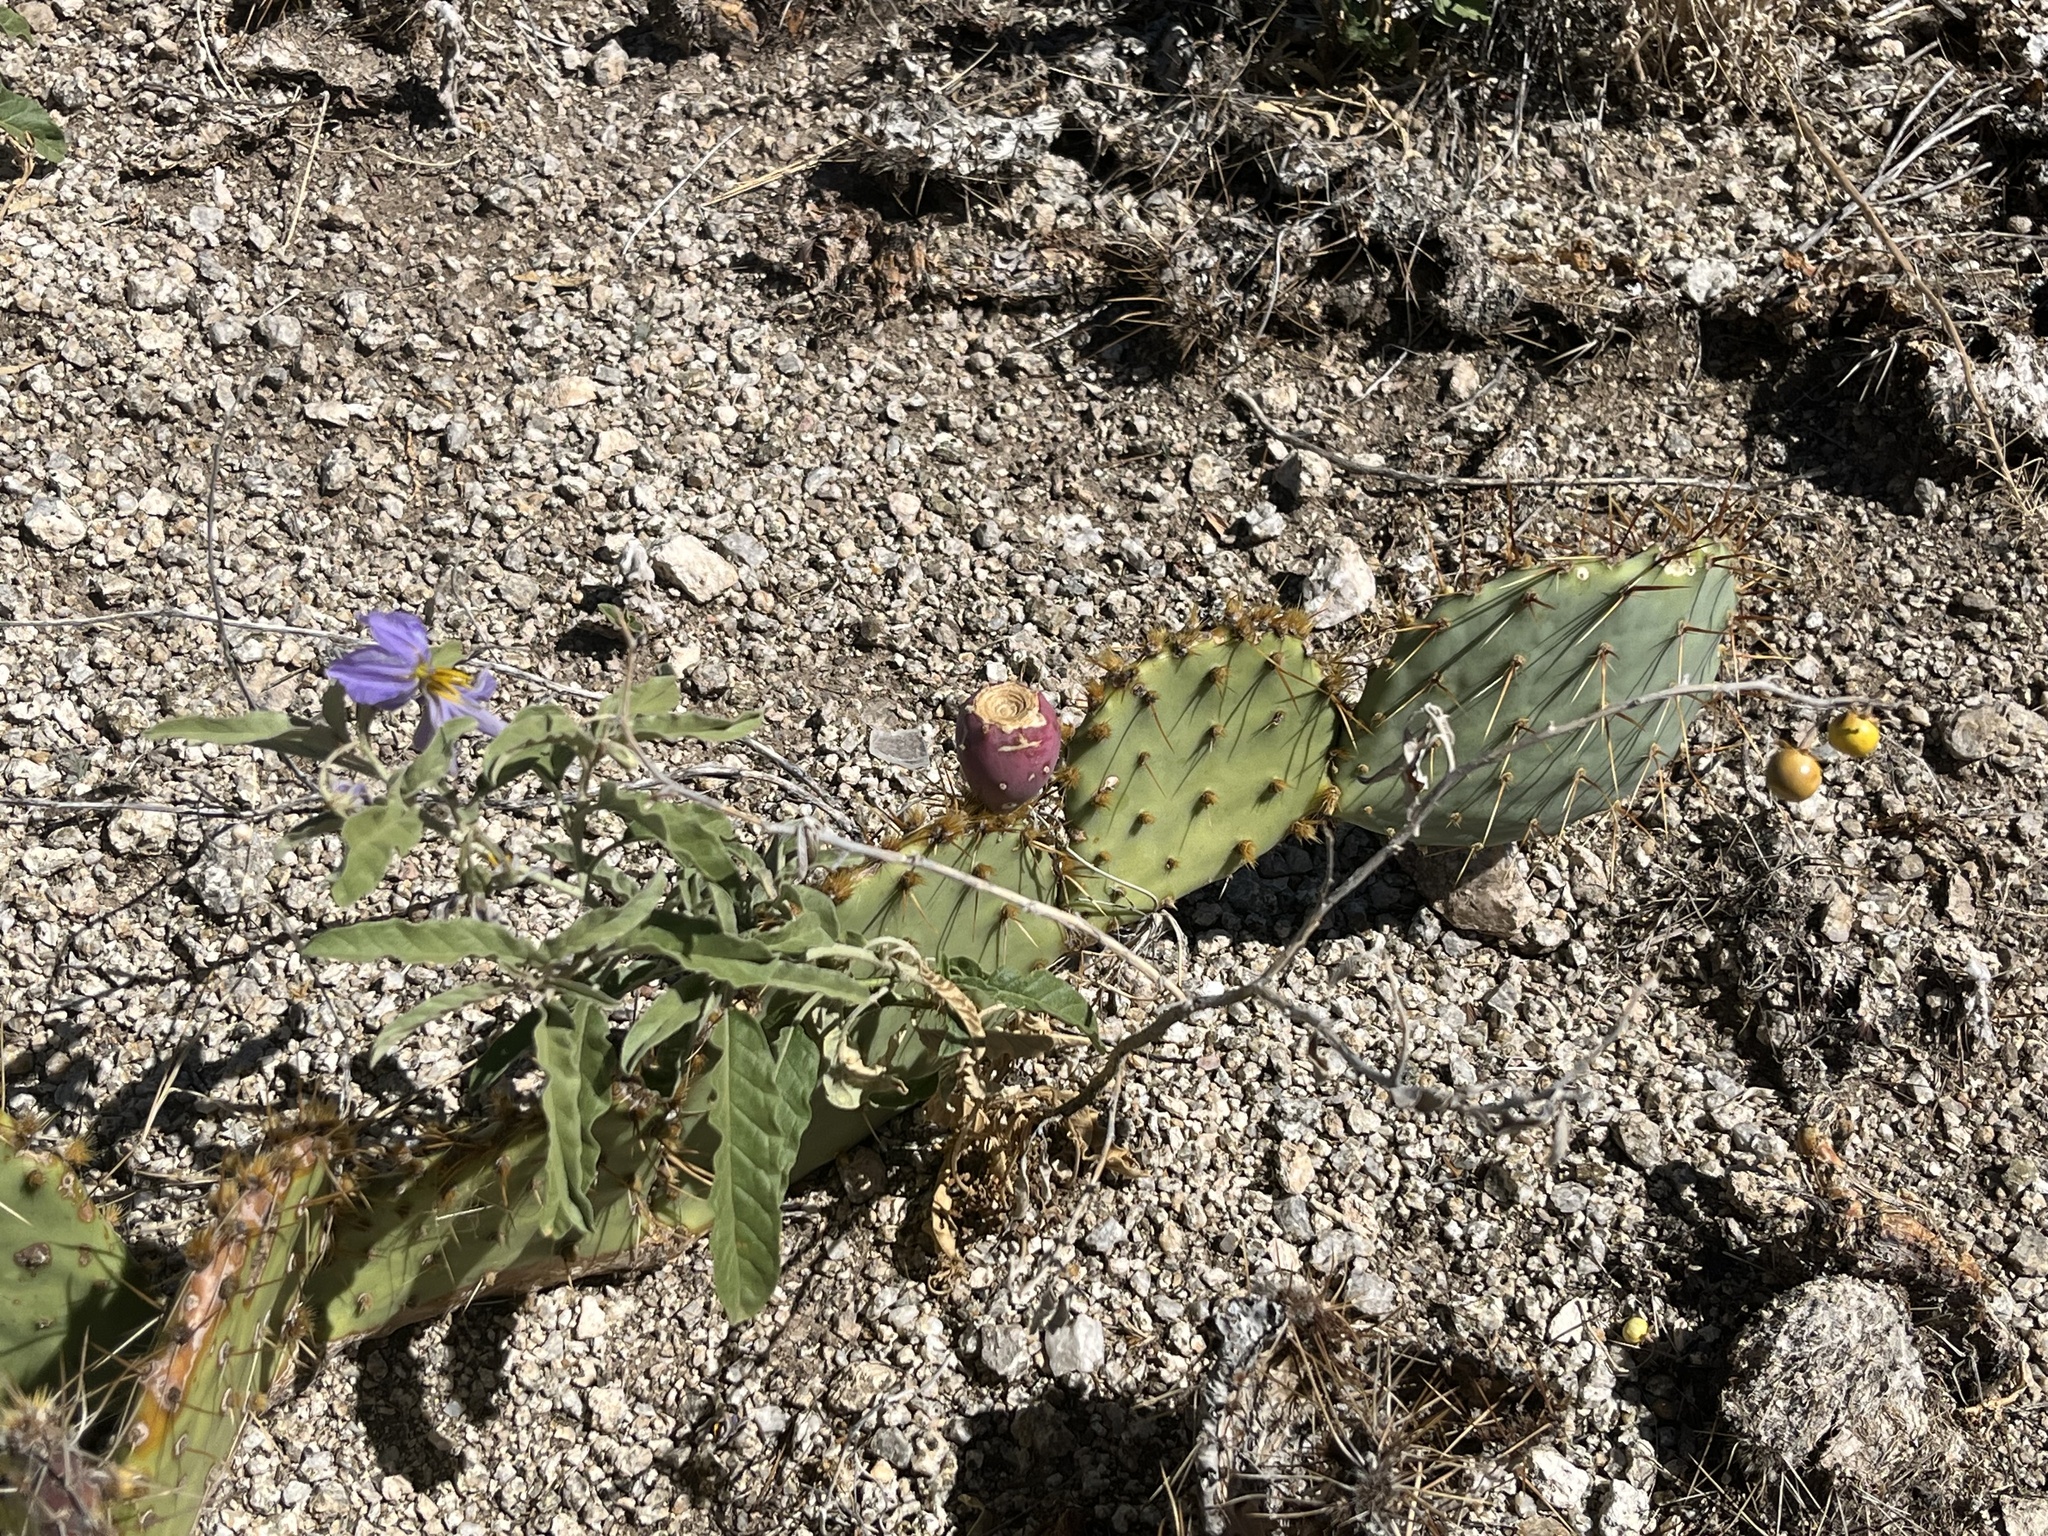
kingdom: Plantae
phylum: Tracheophyta
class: Magnoliopsida
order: Solanales
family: Solanaceae
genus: Solanum
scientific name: Solanum elaeagnifolium
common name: Silverleaf nightshade
